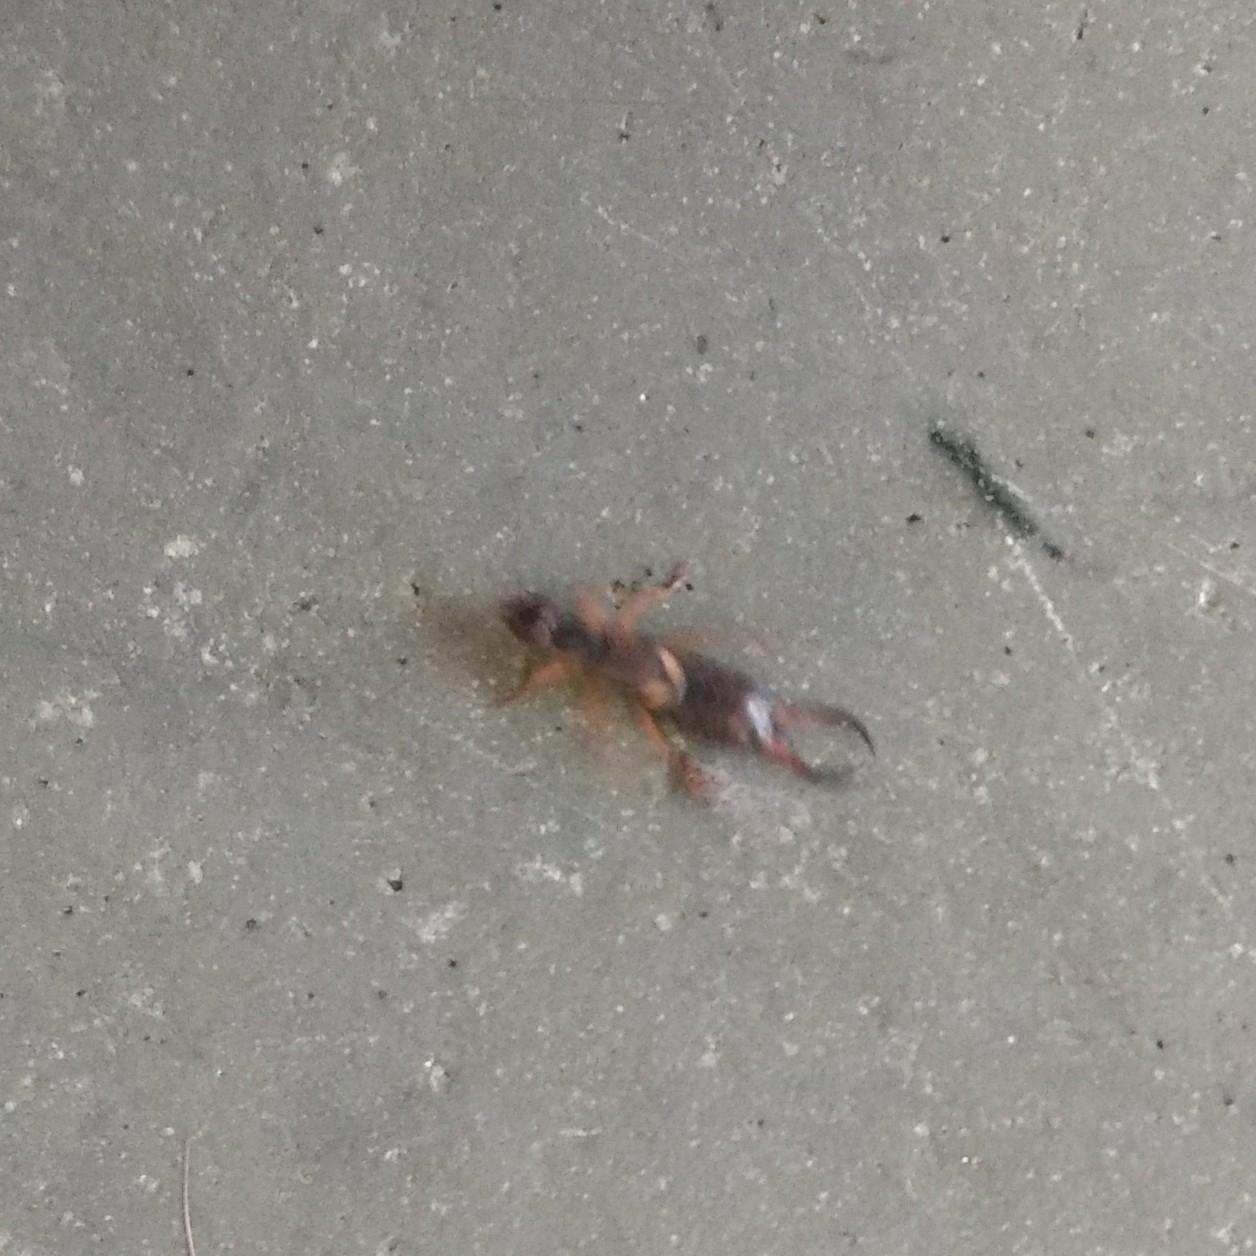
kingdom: Animalia
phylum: Arthropoda
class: Insecta
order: Dermaptera
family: Forficulidae
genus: Forficula
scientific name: Forficula
